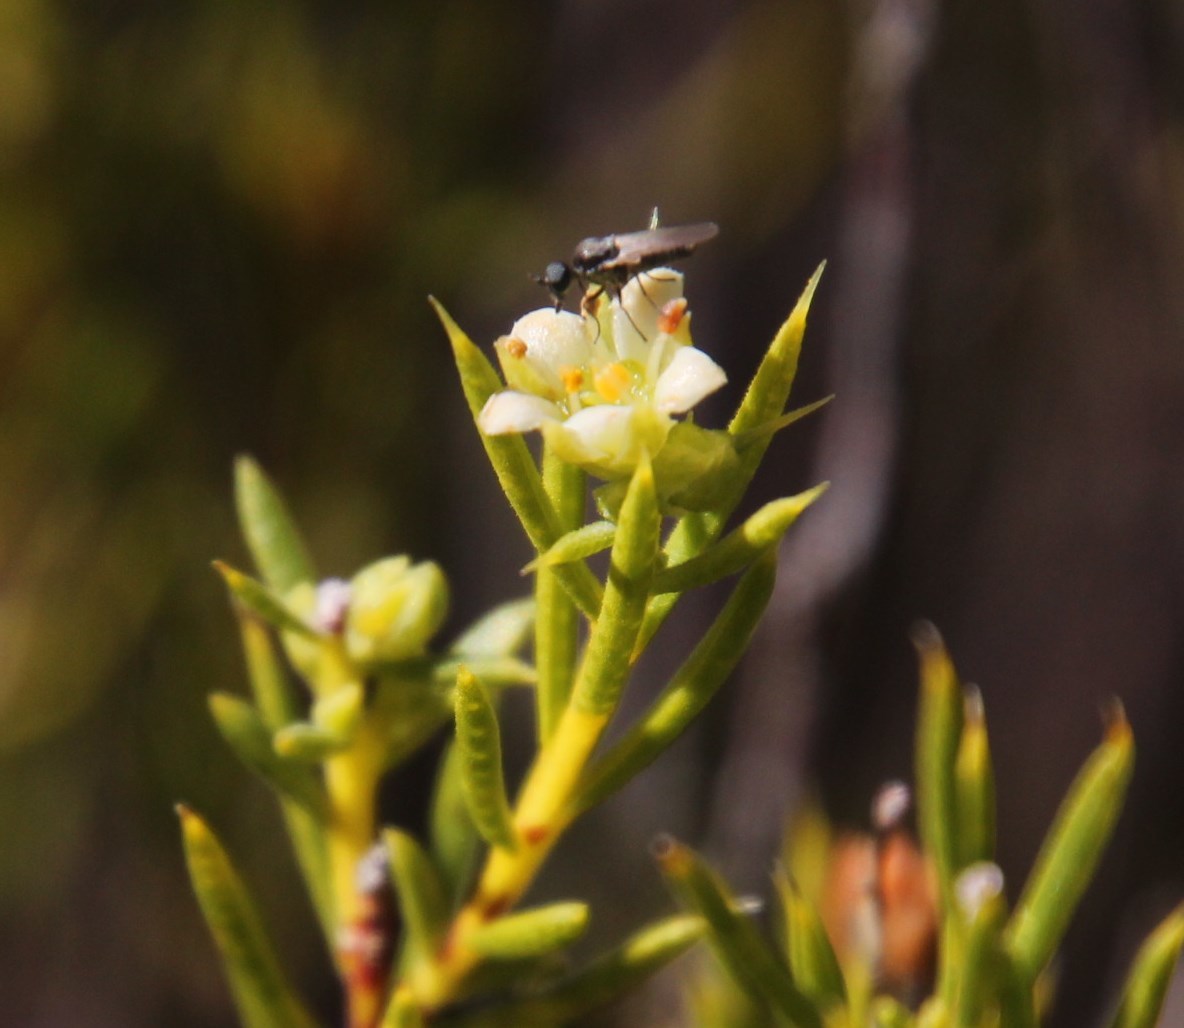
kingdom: Plantae
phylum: Tracheophyta
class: Magnoliopsida
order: Sapindales
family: Rutaceae
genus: Diosma
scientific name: Diosma acmaeophylla
